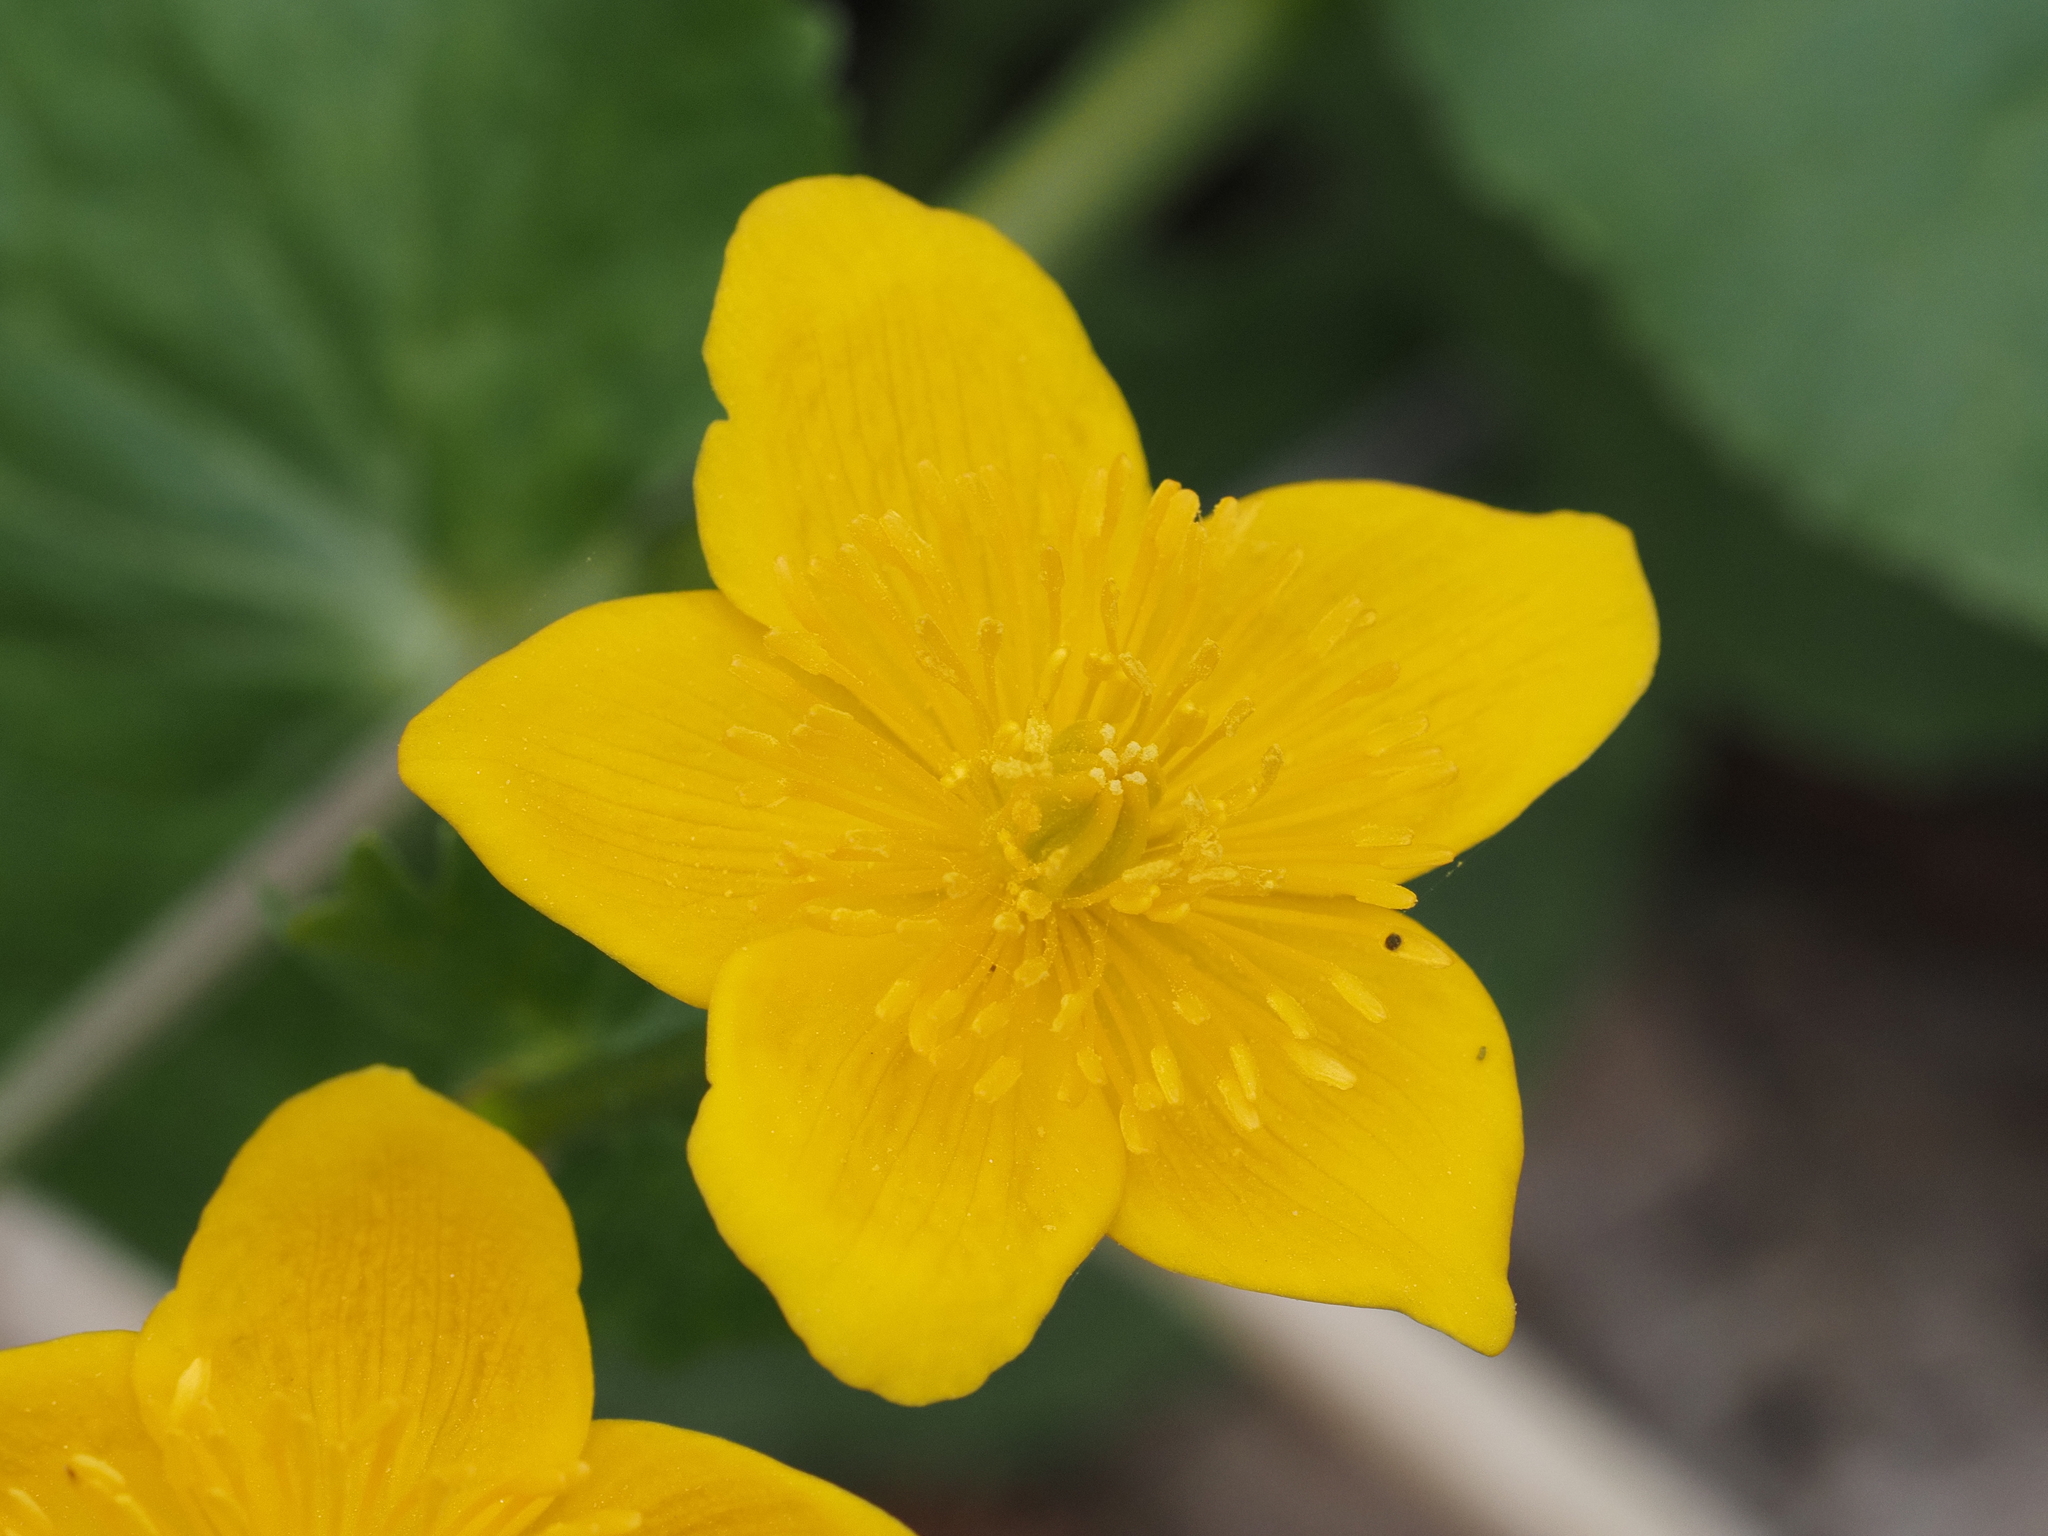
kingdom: Plantae
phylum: Tracheophyta
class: Magnoliopsida
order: Ranunculales
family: Ranunculaceae
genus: Caltha
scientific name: Caltha palustris
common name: Marsh marigold
